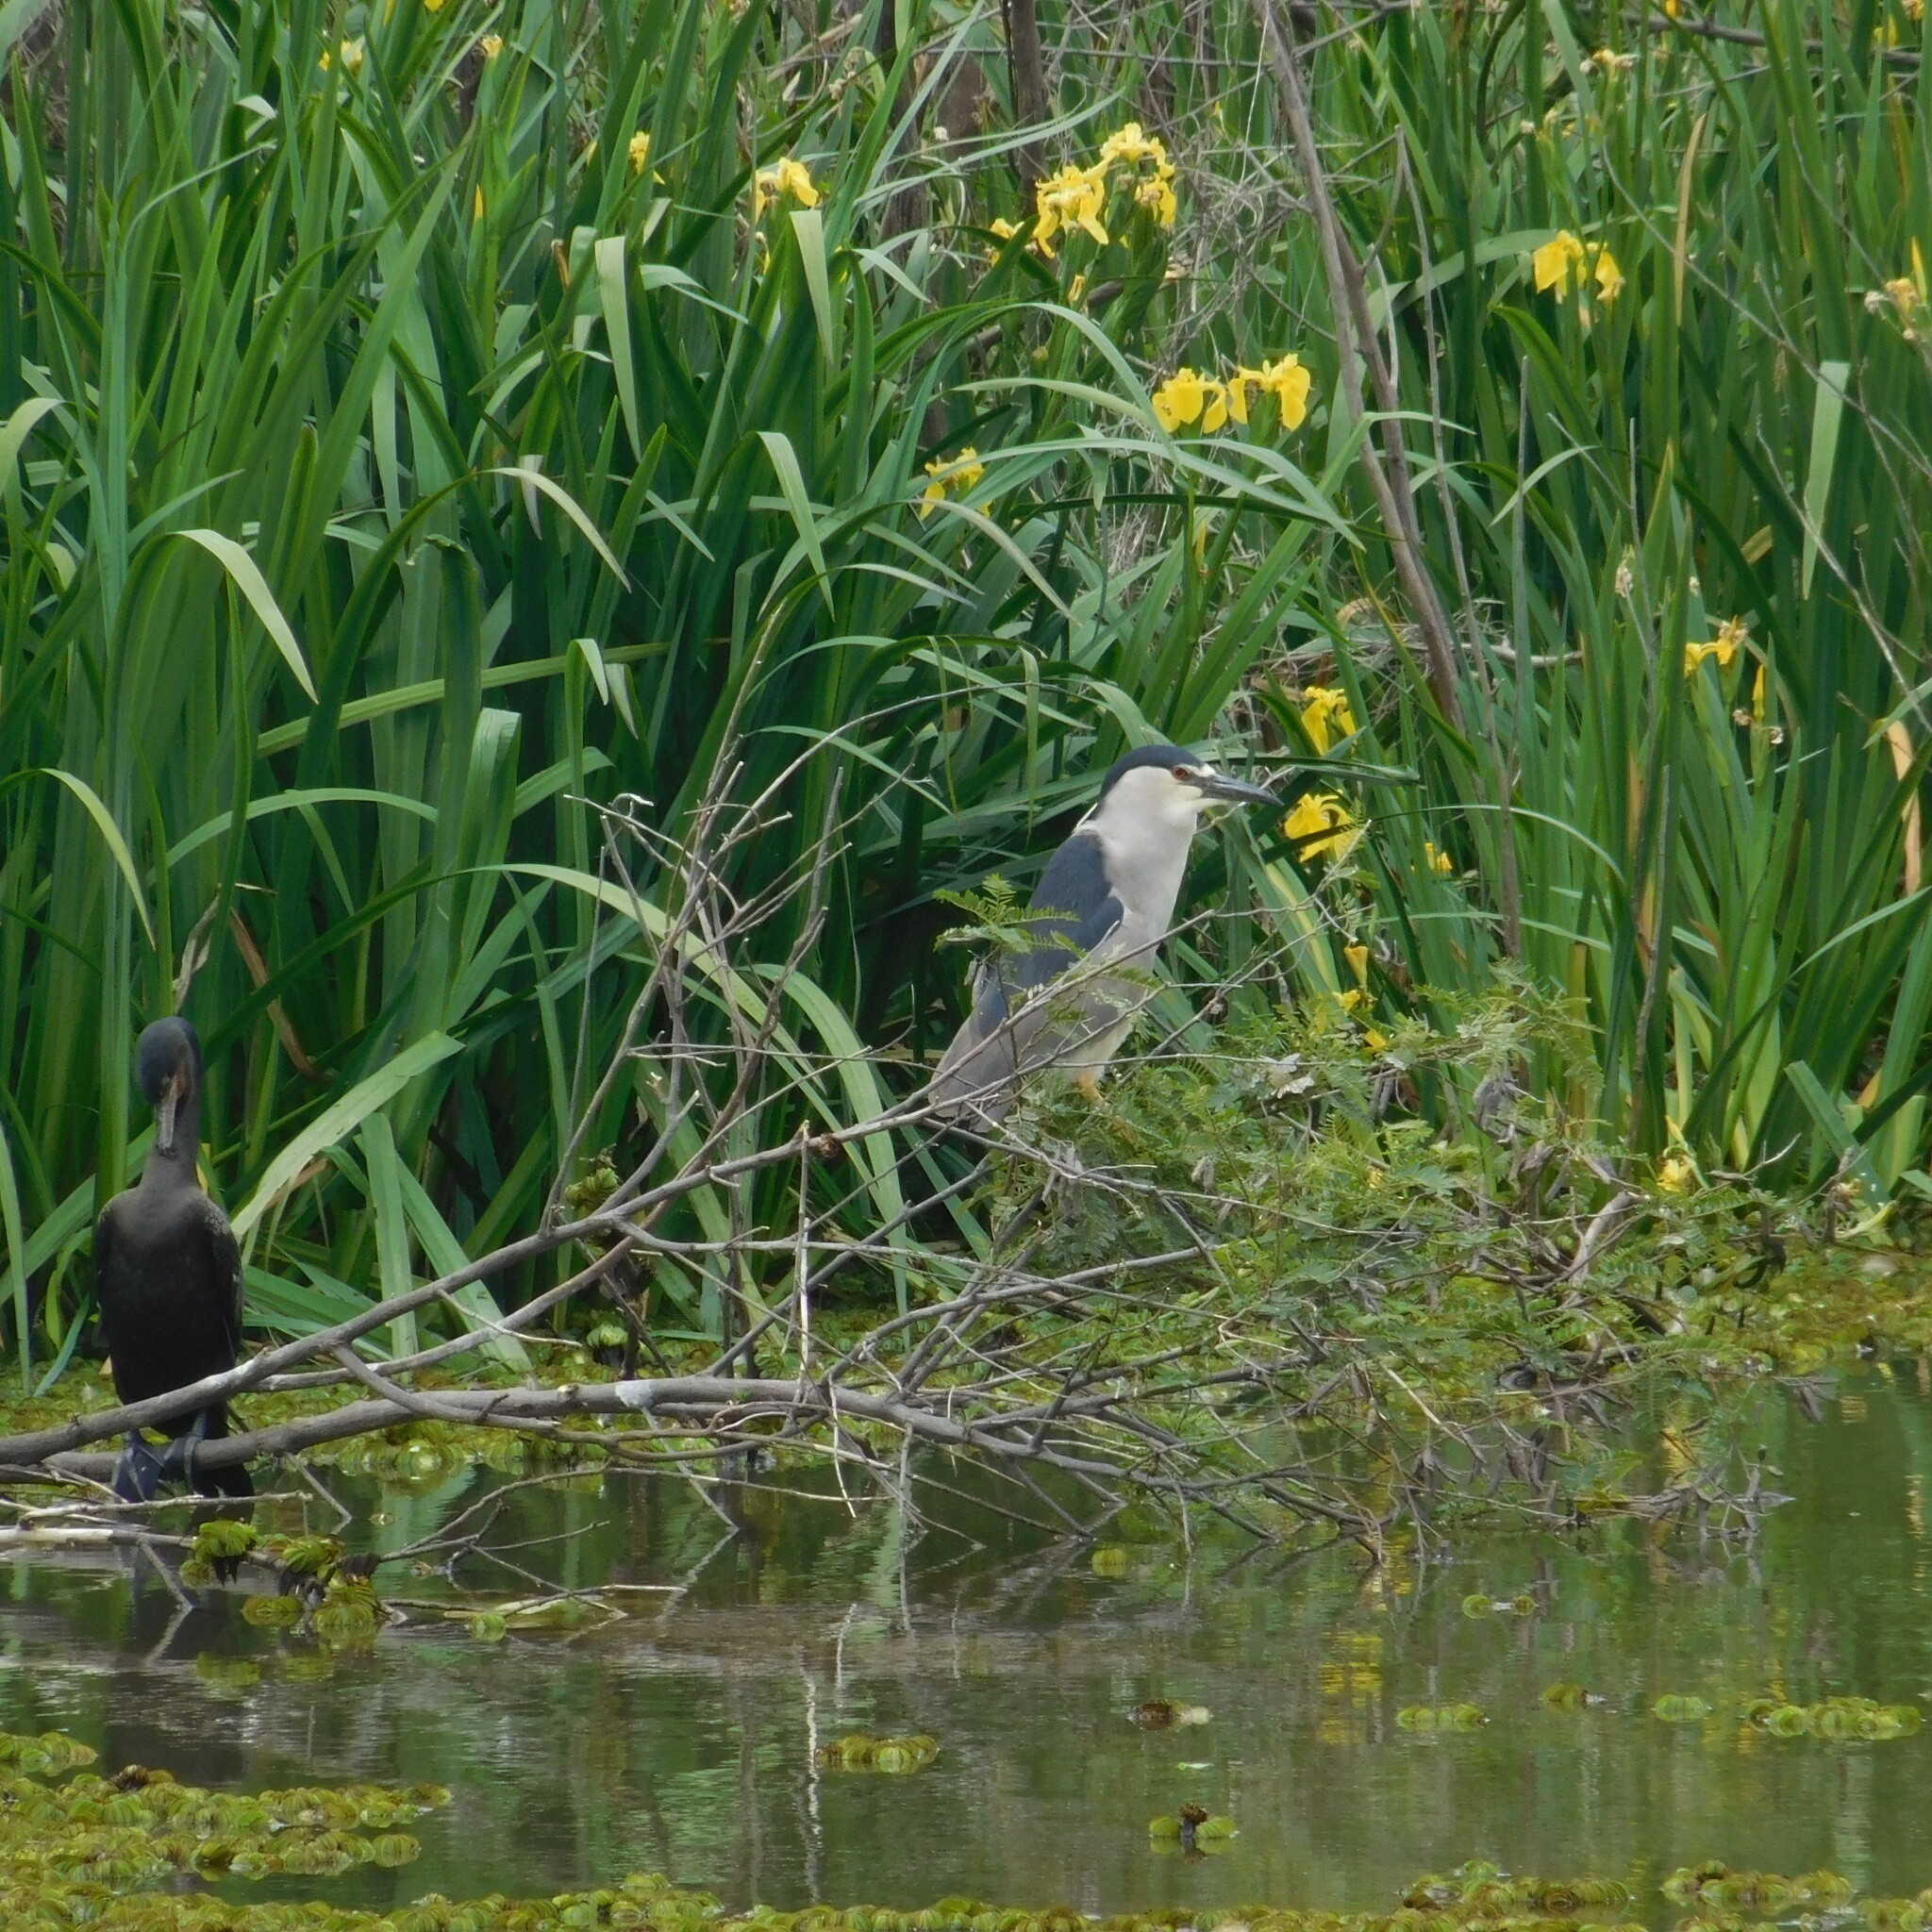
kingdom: Animalia
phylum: Chordata
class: Aves
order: Pelecaniformes
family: Ardeidae
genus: Nycticorax
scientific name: Nycticorax nycticorax
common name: Black-crowned night heron
